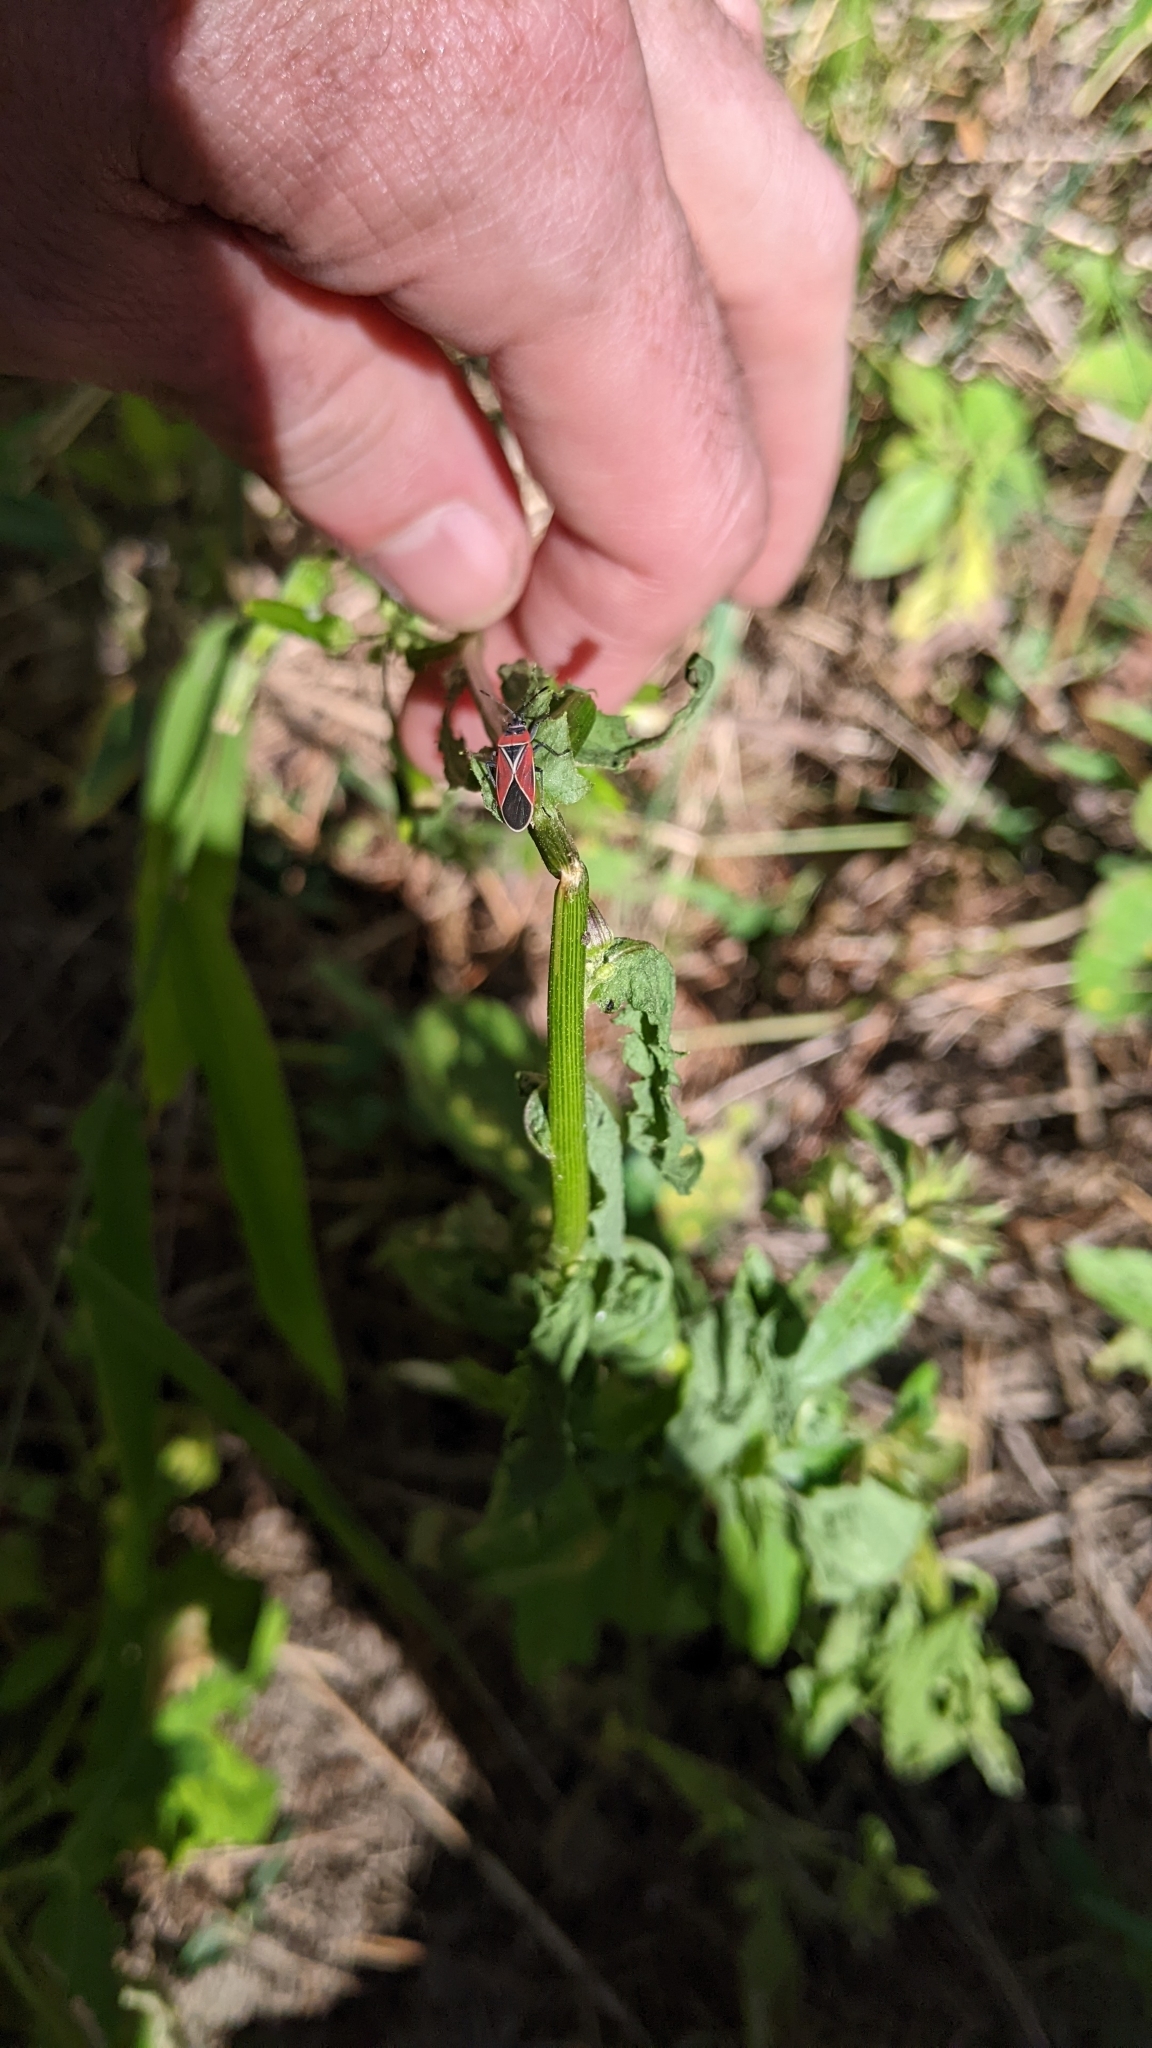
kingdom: Animalia
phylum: Arthropoda
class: Insecta
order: Hemiptera
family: Lygaeidae
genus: Neacoryphus
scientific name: Neacoryphus bicrucis
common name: Lygaeid bug
